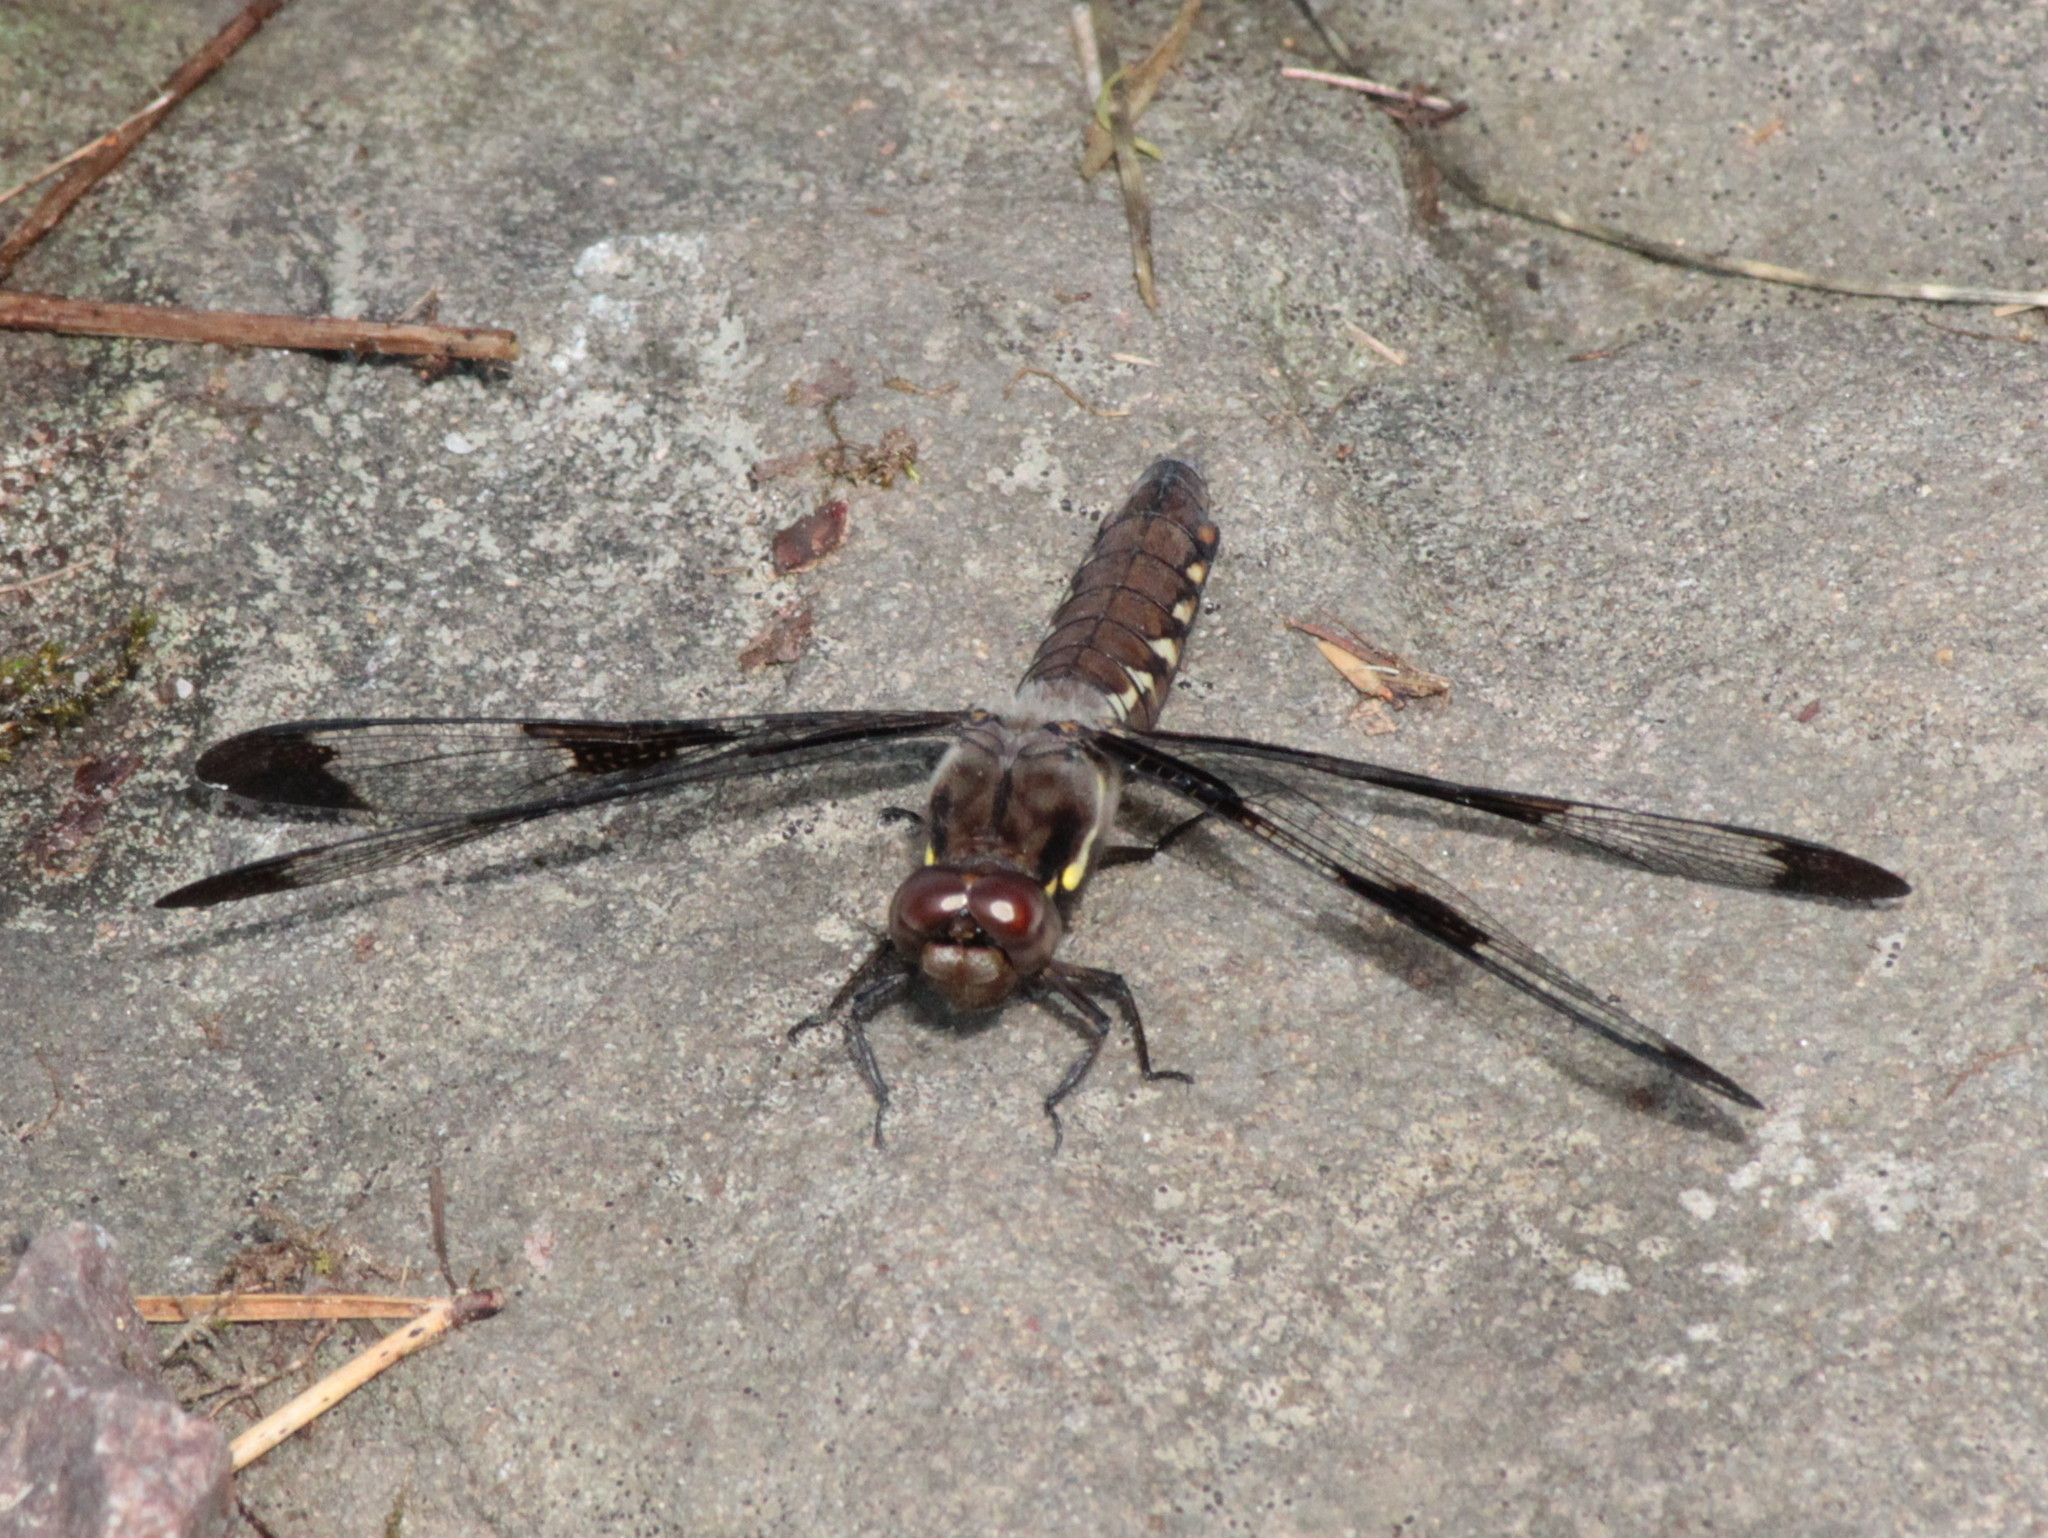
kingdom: Animalia
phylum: Arthropoda
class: Insecta
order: Odonata
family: Libellulidae
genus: Plathemis
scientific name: Plathemis lydia
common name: Common whitetail
